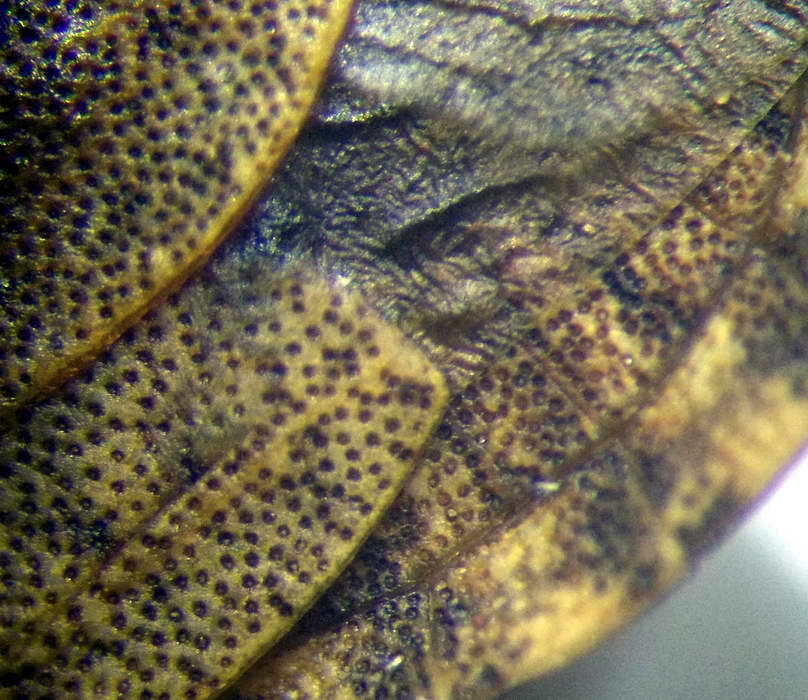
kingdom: Animalia
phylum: Arthropoda
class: Insecta
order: Hemiptera
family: Pentatomidae
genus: Sciocoris
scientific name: Sciocoris homalonotus
